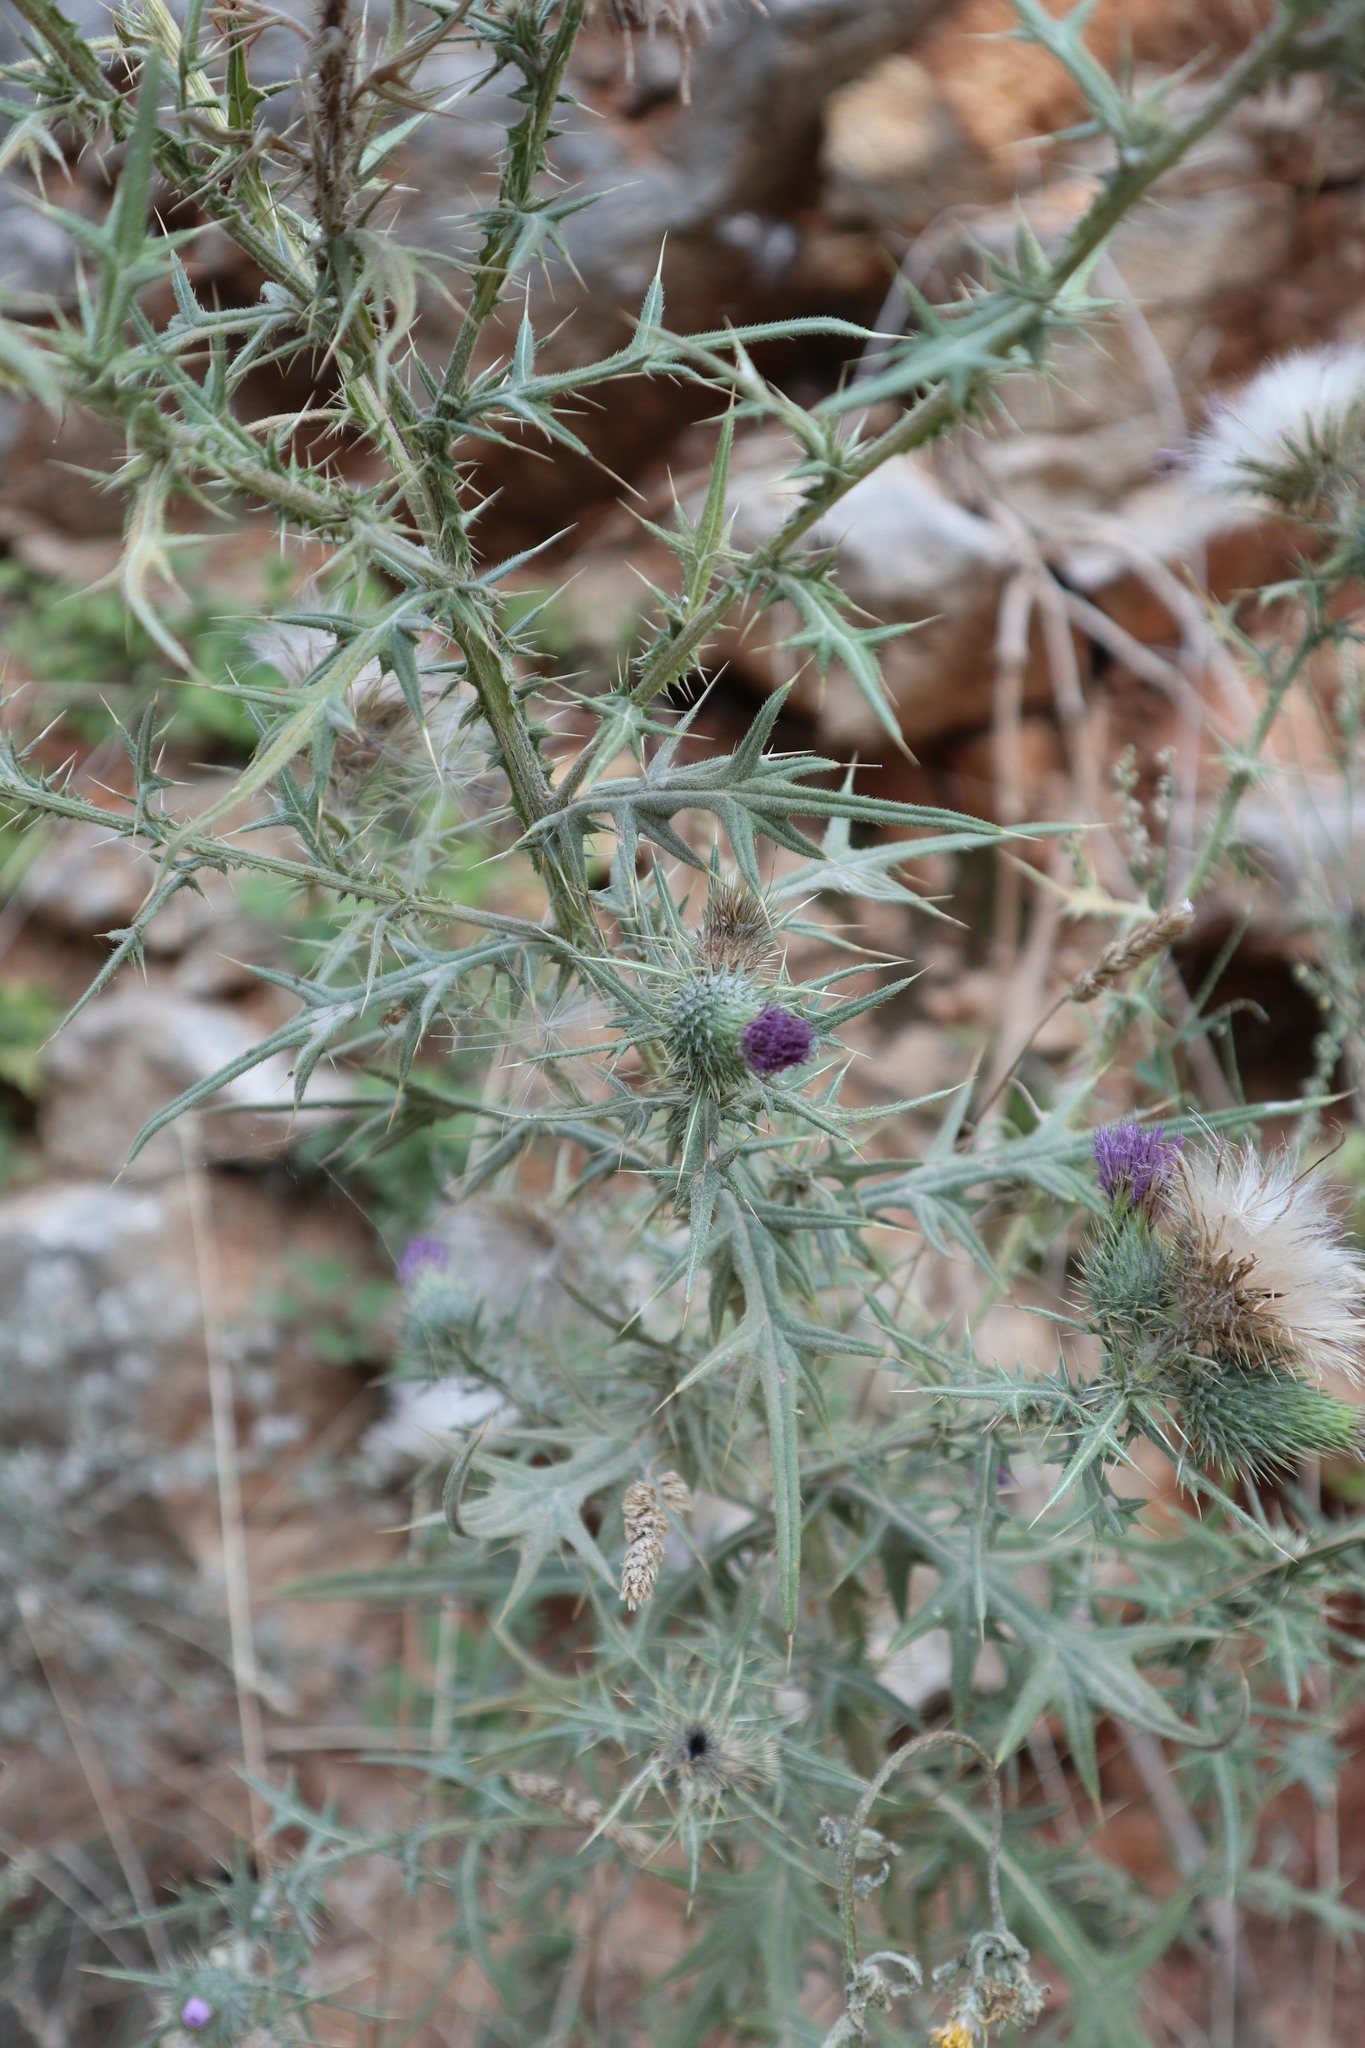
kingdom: Plantae
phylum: Tracheophyta
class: Magnoliopsida
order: Asterales
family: Asteraceae
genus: Cirsium
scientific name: Cirsium vulgare
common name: Bull thistle
